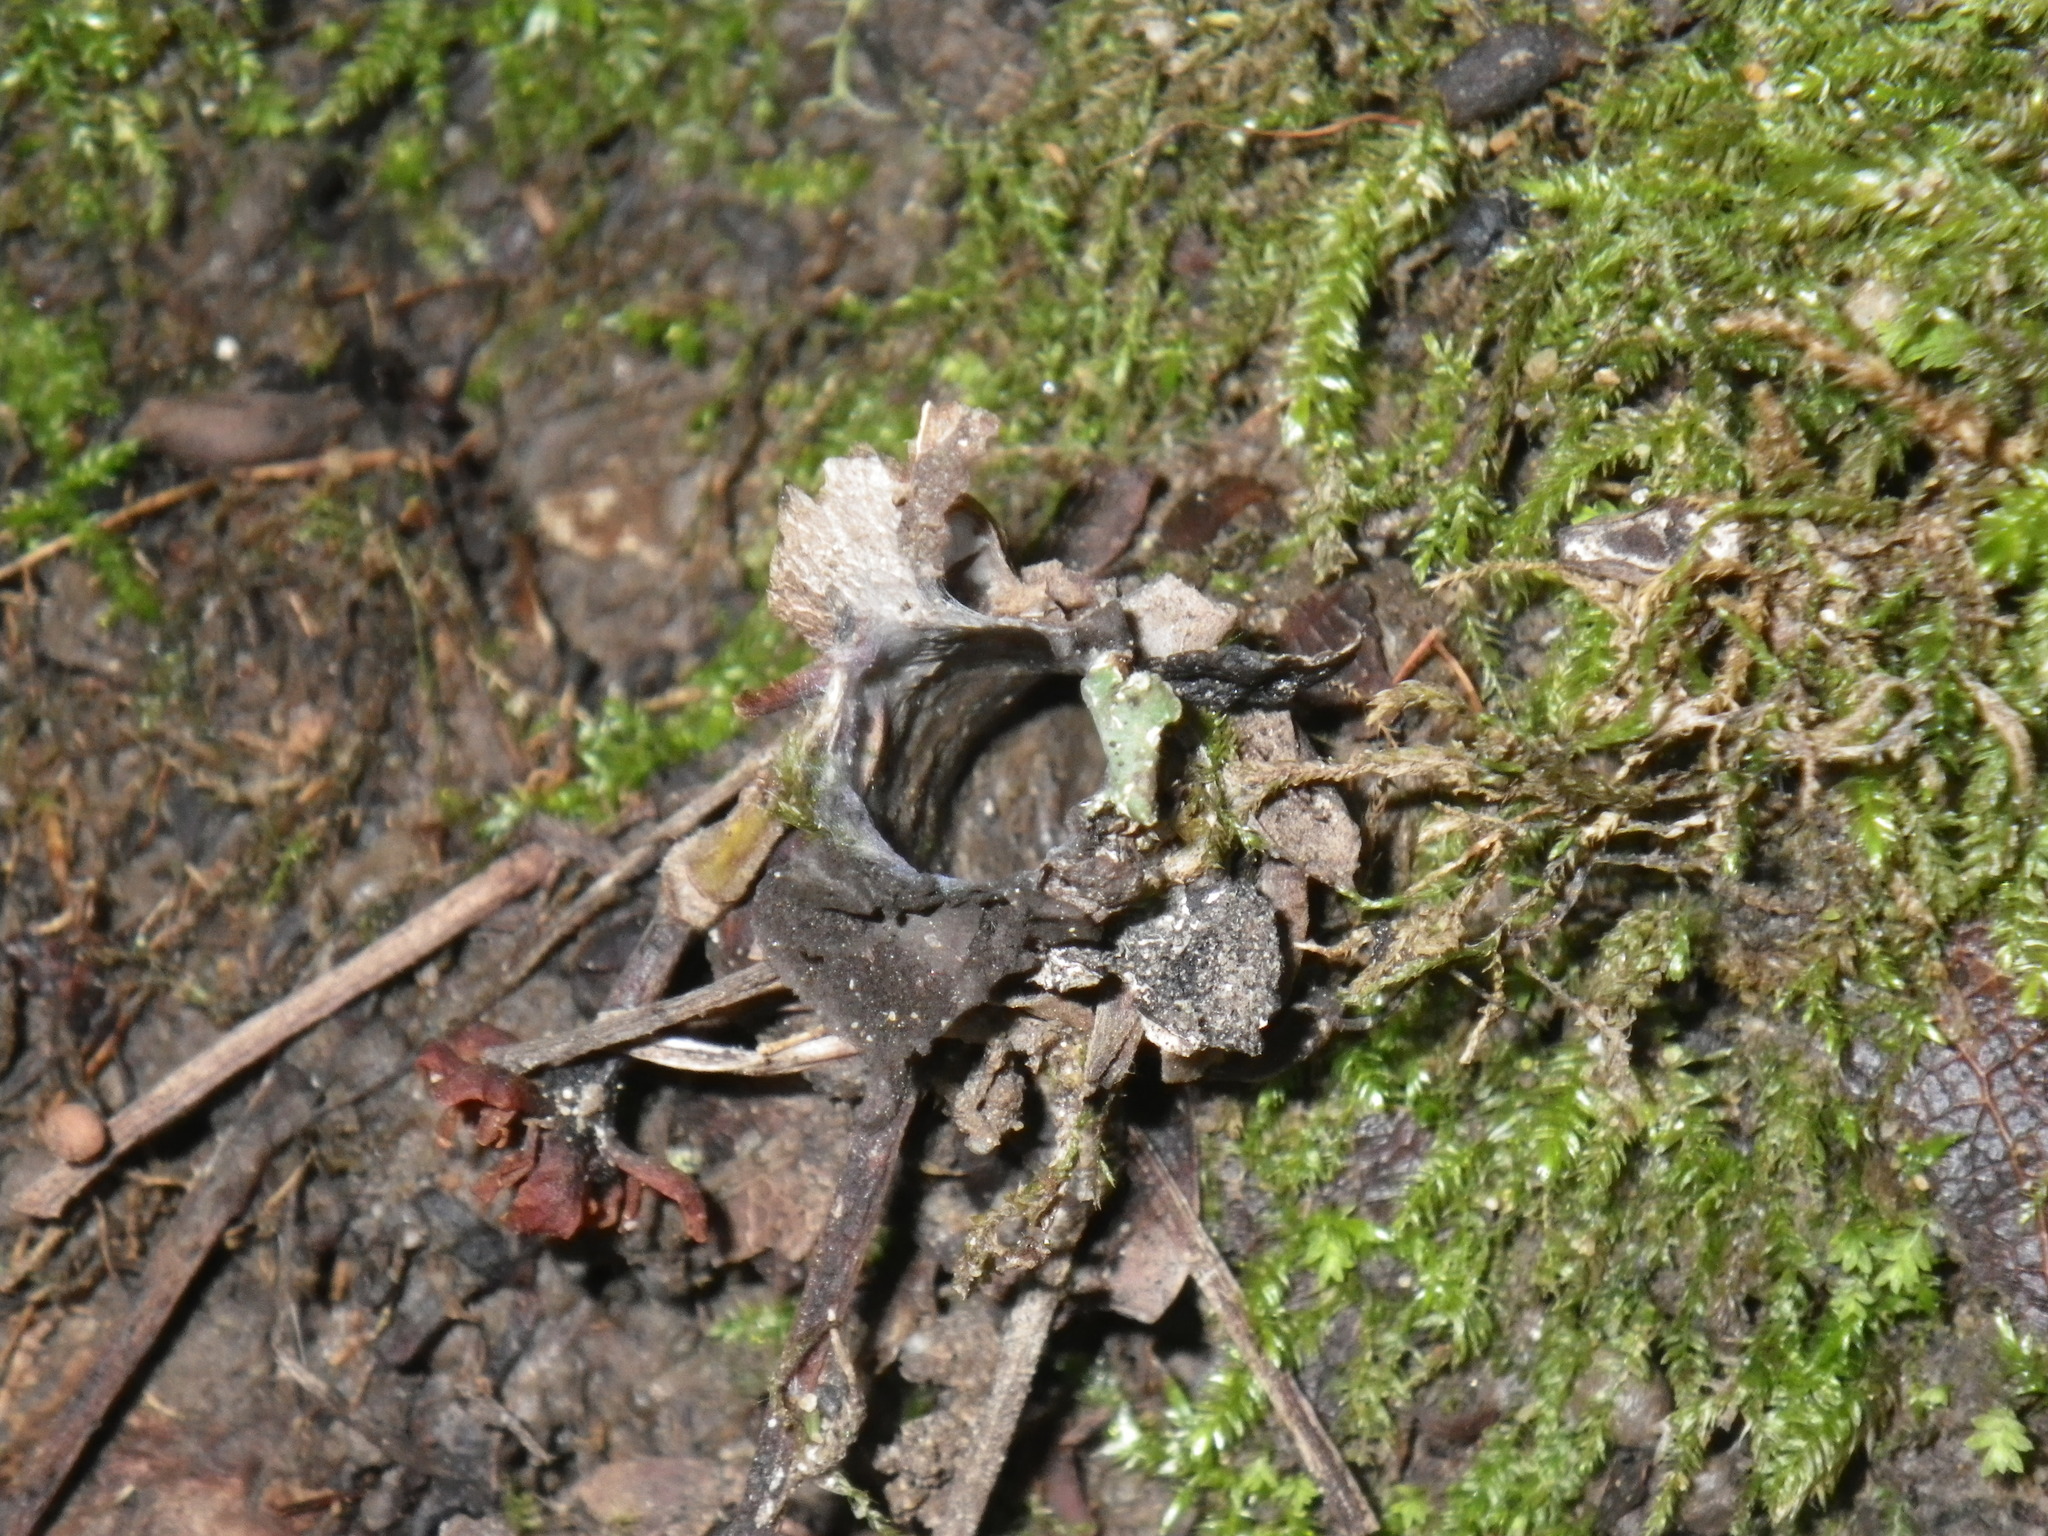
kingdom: Animalia
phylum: Arthropoda
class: Arachnida
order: Araneae
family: Antrodiaetidae
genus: Atypoides
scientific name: Atypoides riversi
